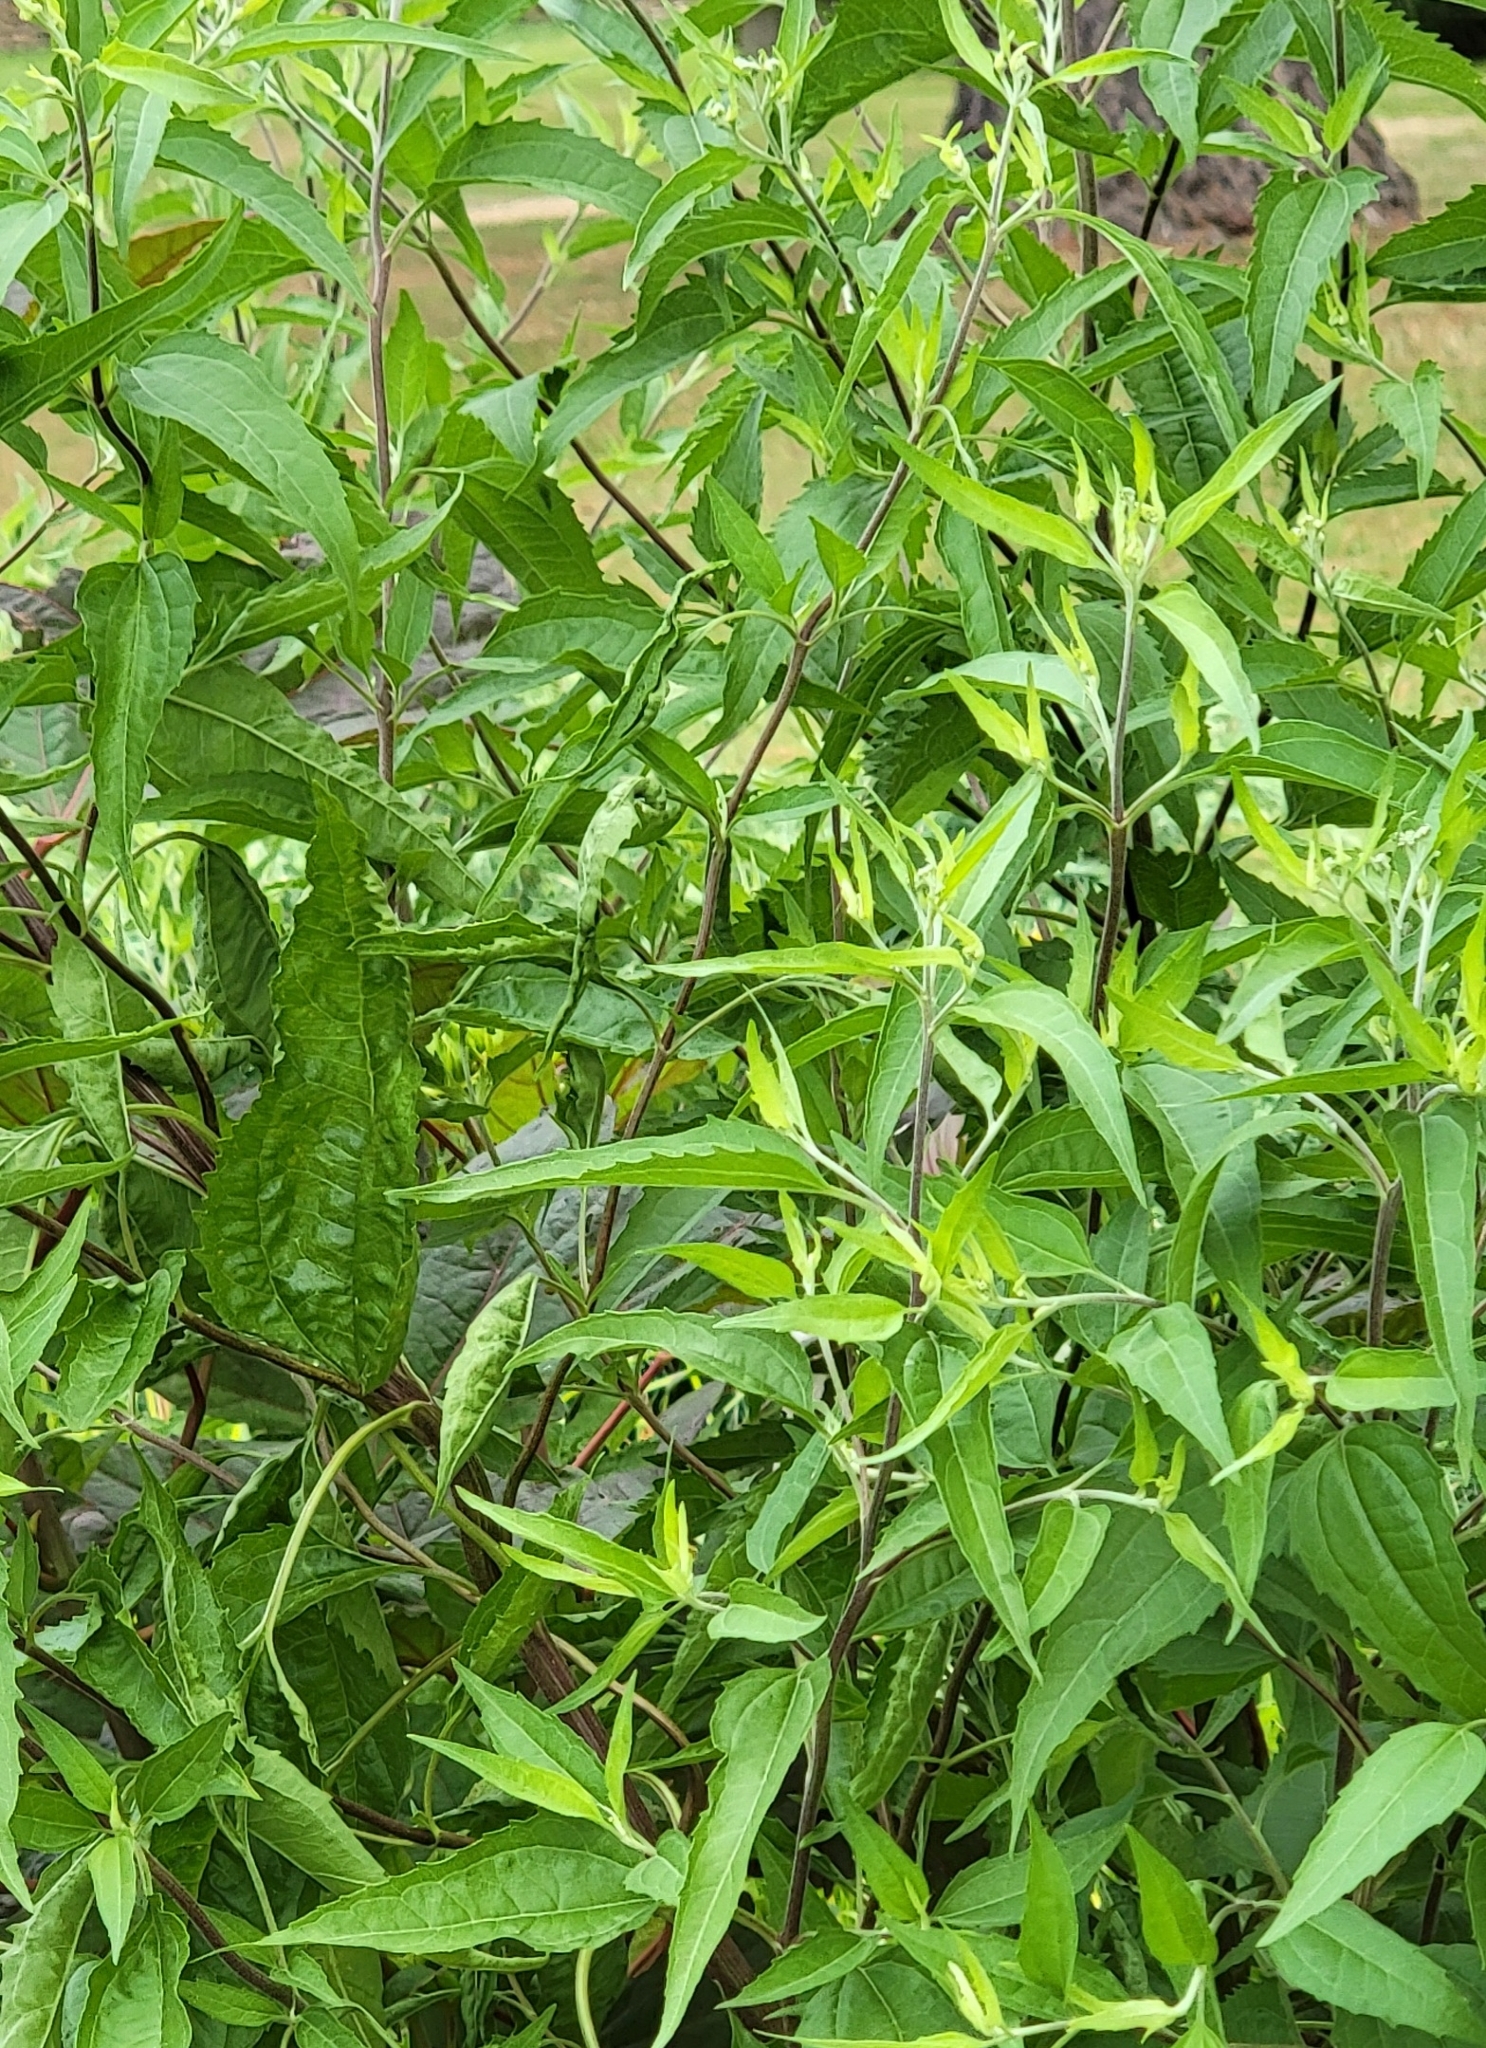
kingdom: Plantae
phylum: Tracheophyta
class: Magnoliopsida
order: Asterales
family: Asteraceae
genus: Eupatorium
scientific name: Eupatorium serotinum
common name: Late boneset
